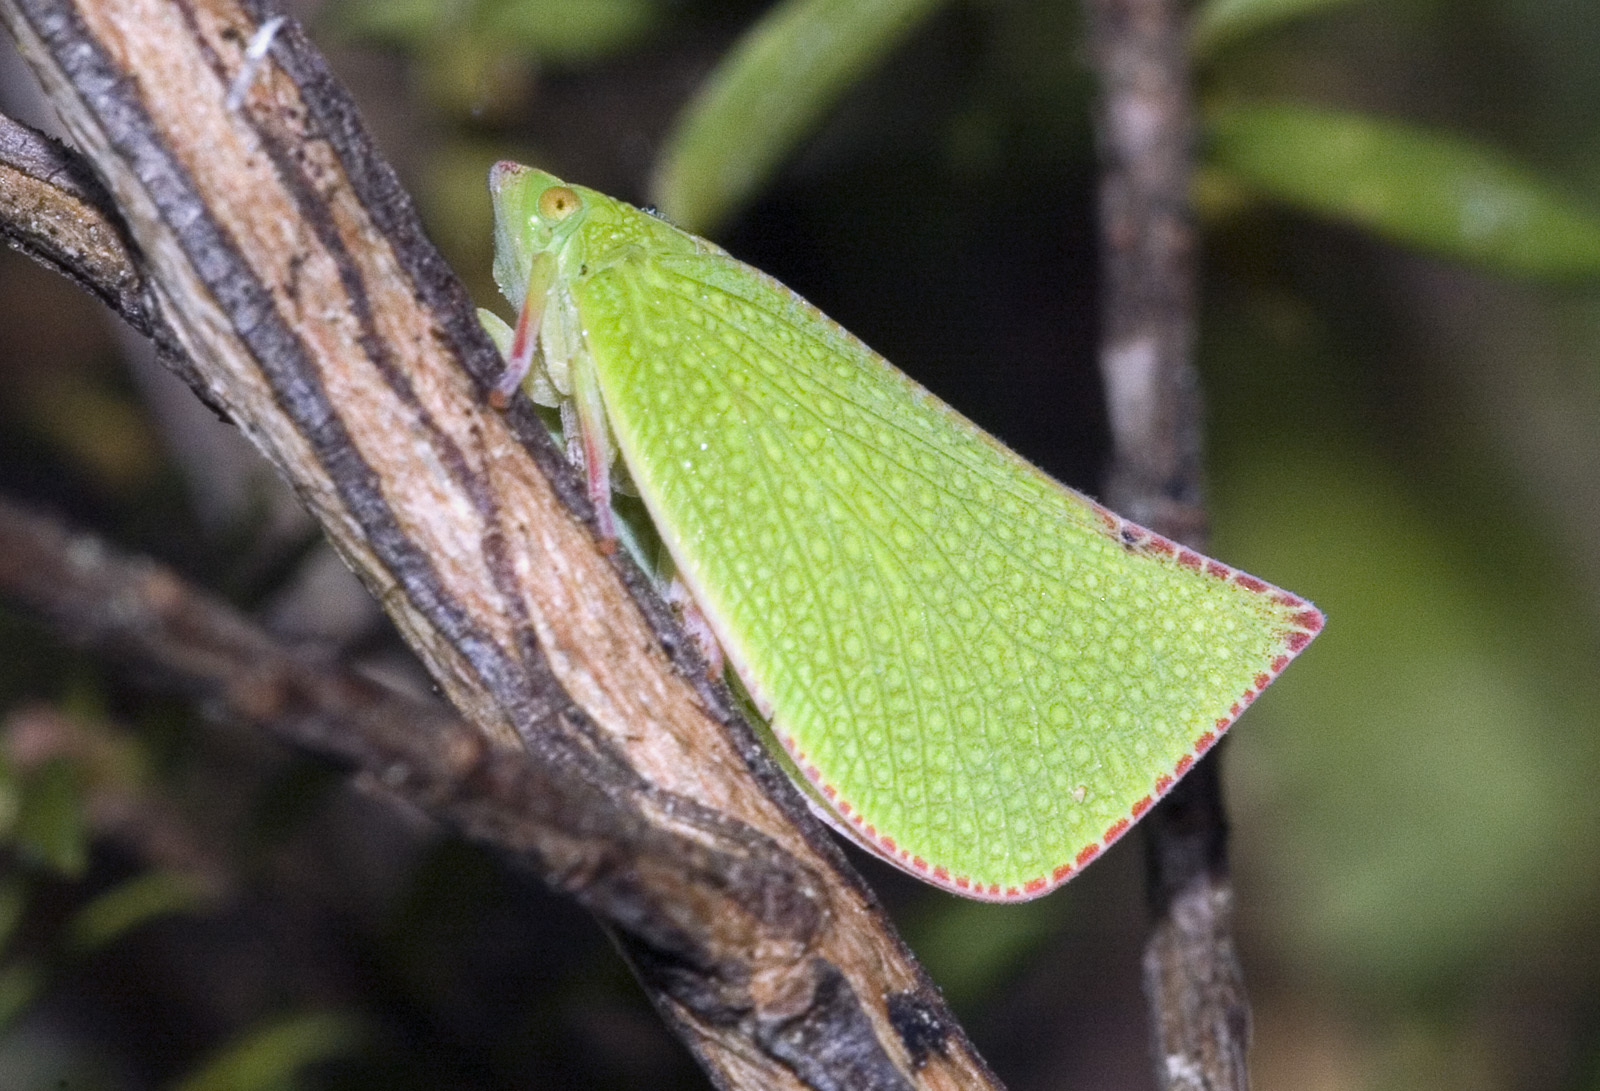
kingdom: Animalia
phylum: Arthropoda
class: Insecta
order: Hemiptera
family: Flatidae
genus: Siphanta
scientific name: Siphanta acuta
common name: Torpedo bug
